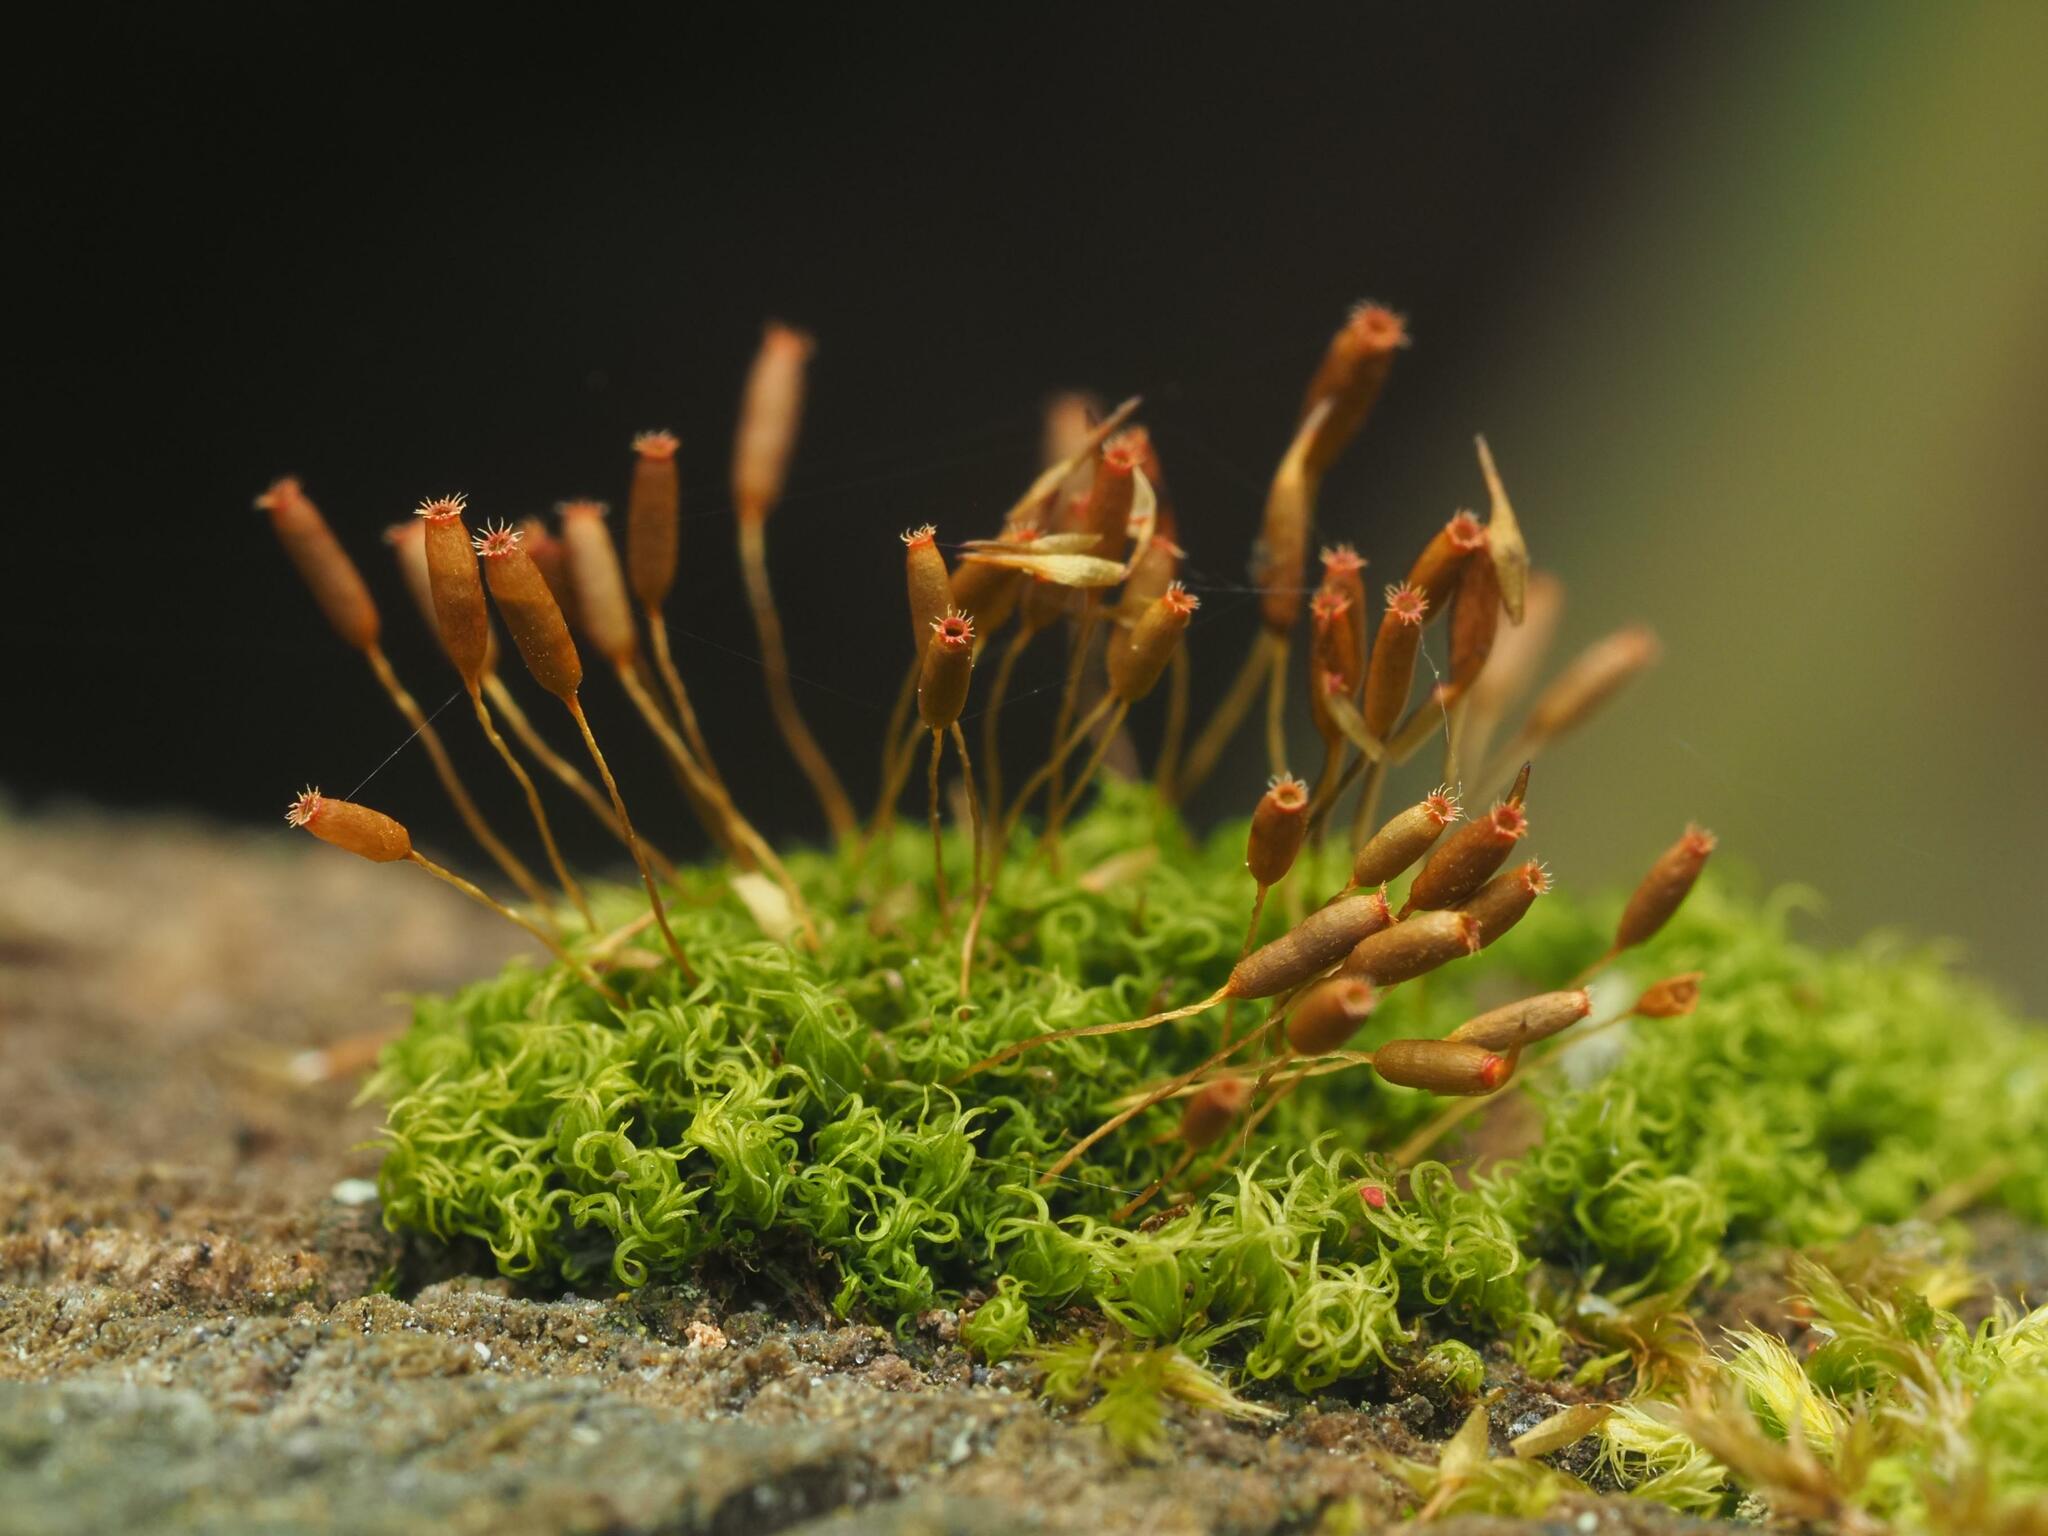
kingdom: Plantae
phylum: Bryophyta
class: Bryopsida
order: Dicranales
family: Rhabdoweisiaceae
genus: Dicranoweisia
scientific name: Dicranoweisia cirrata
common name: Common pincushion
